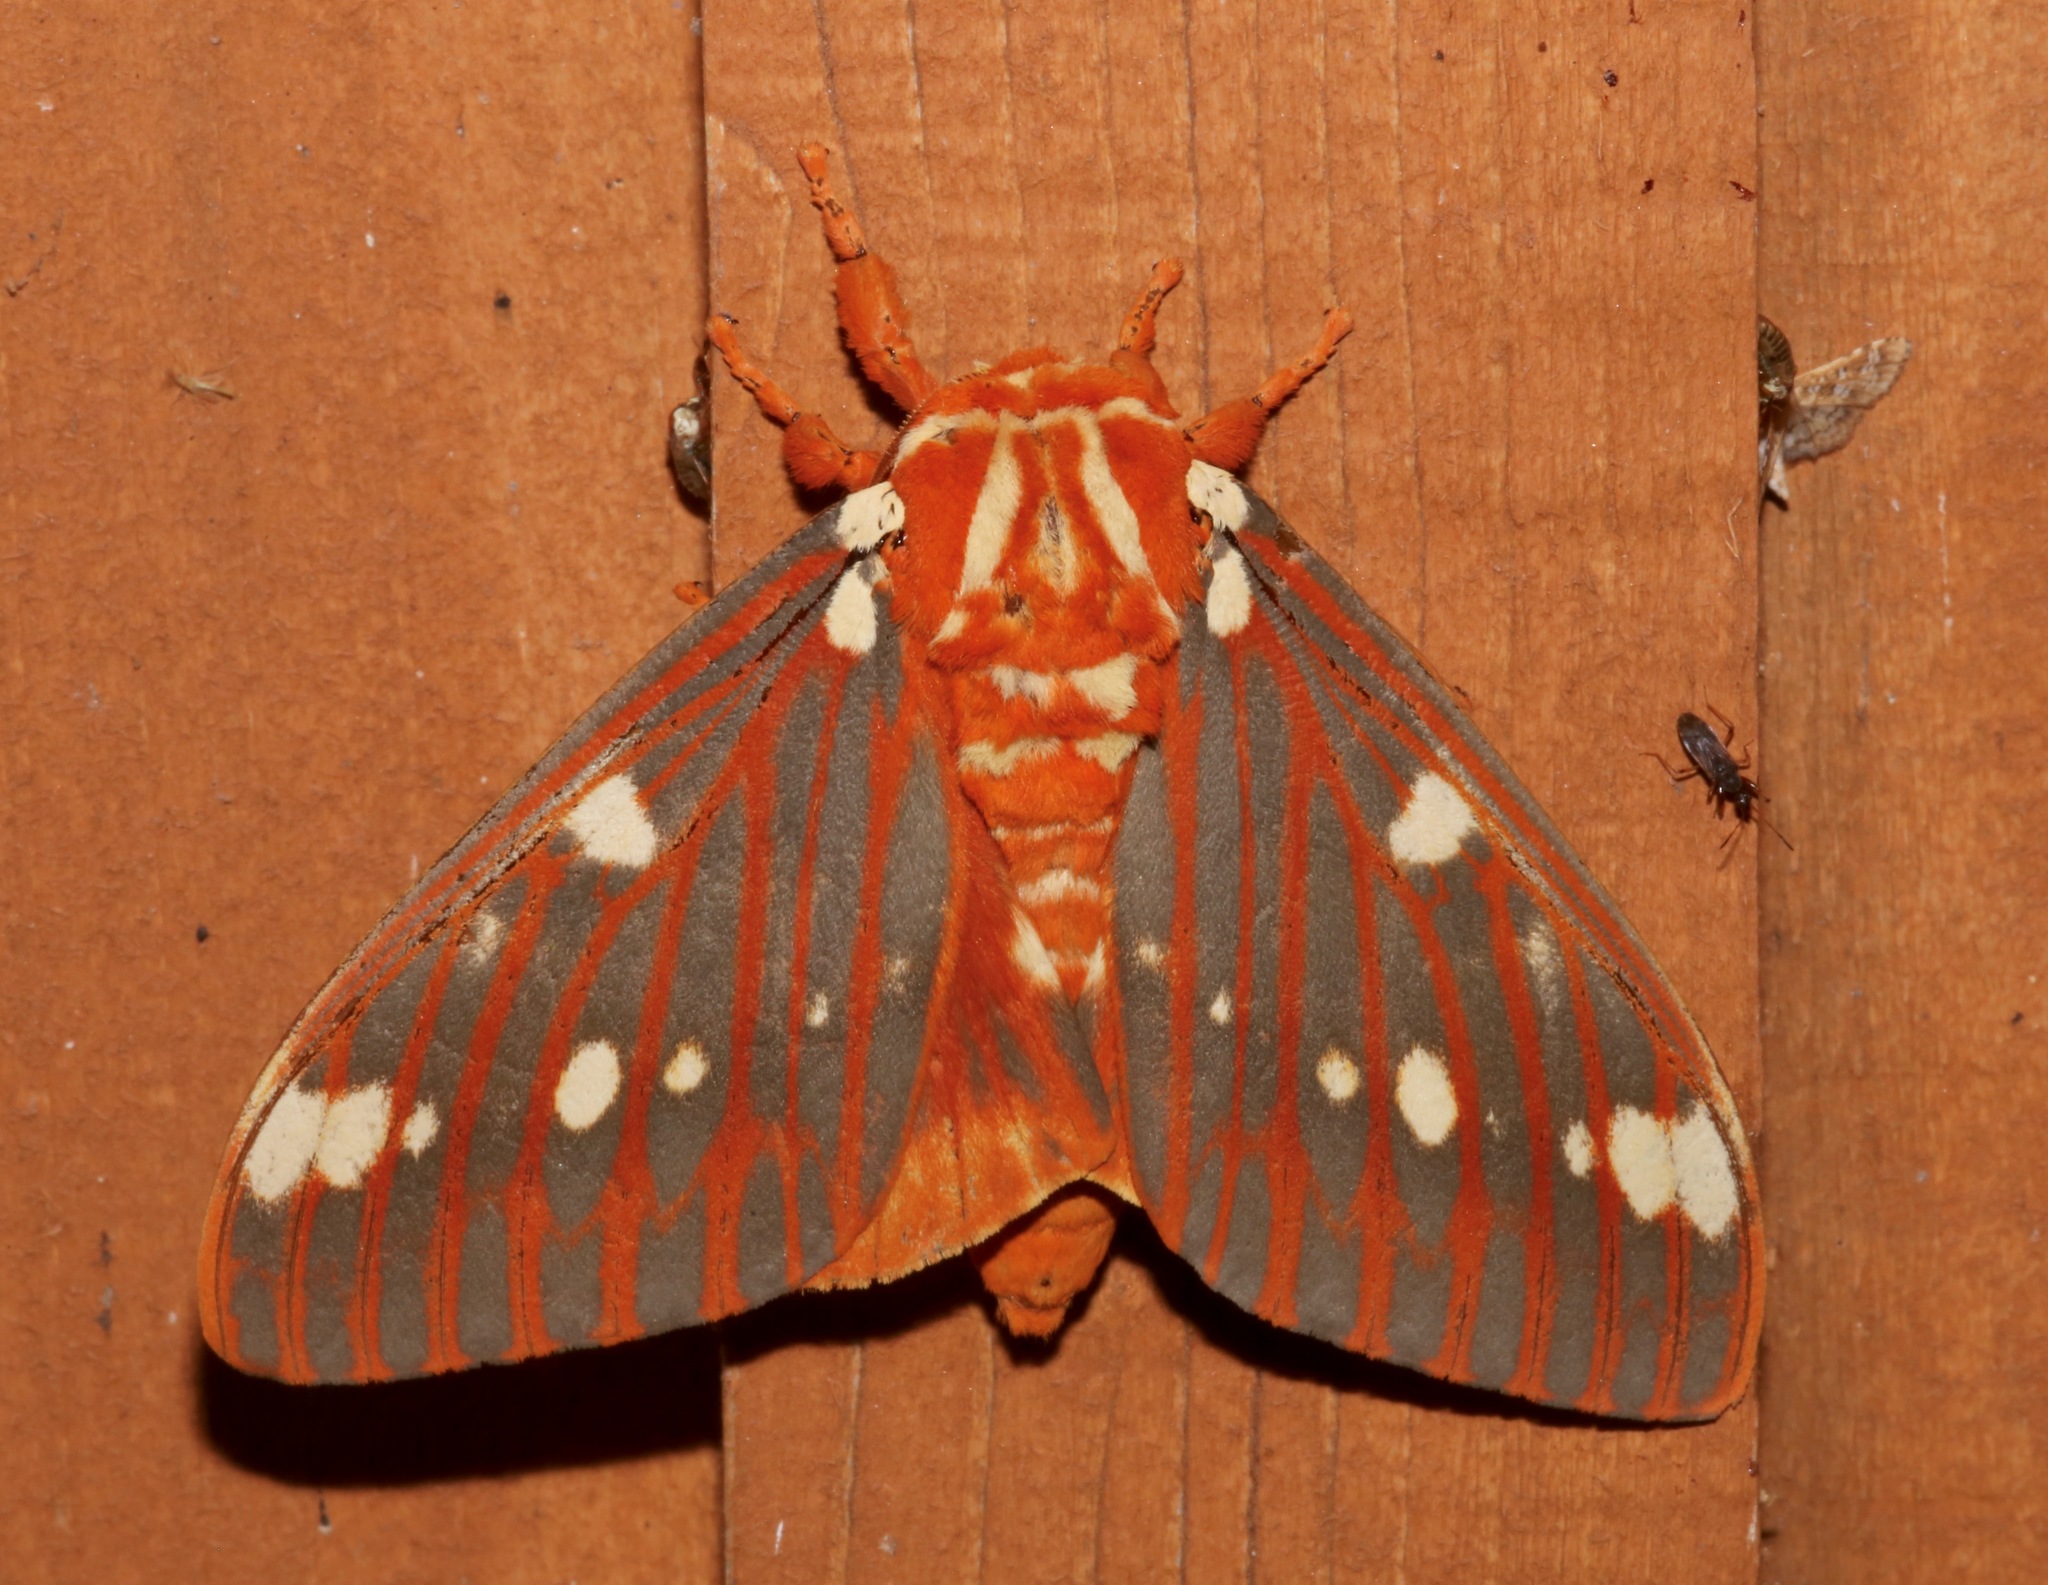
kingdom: Animalia
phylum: Arthropoda
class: Insecta
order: Lepidoptera
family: Saturniidae
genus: Citheronia
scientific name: Citheronia regalis
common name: Hickory horned devil
